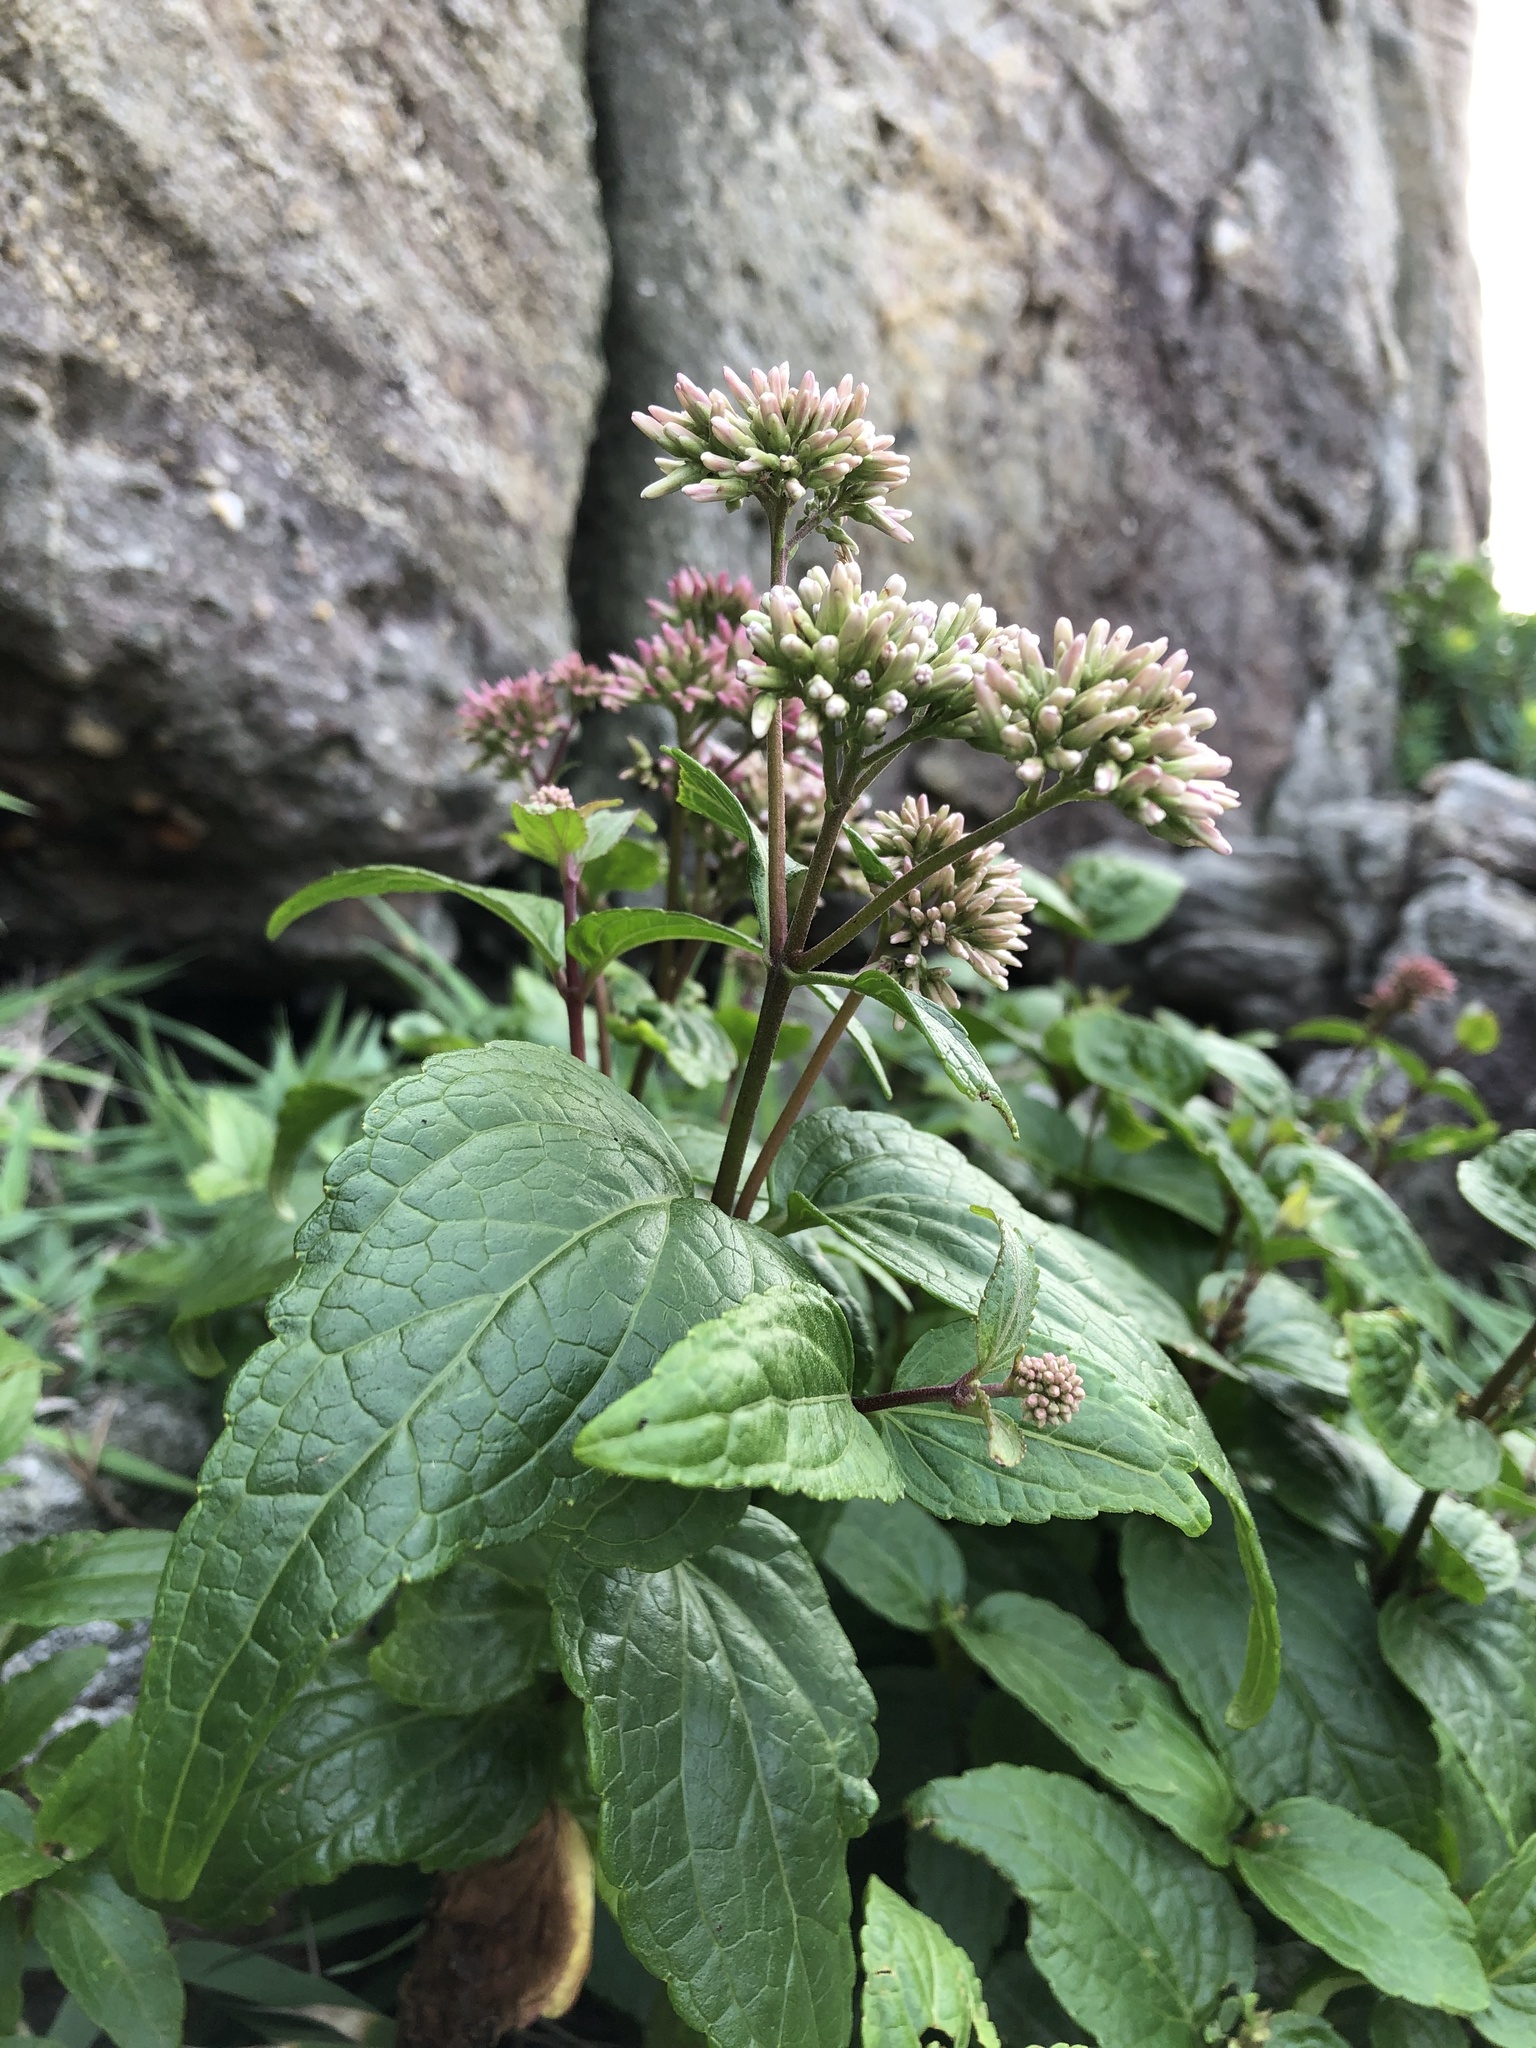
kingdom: Plantae
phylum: Tracheophyta
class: Magnoliopsida
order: Asterales
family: Asteraceae
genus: Eupatorium
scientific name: Eupatorium luchuense
